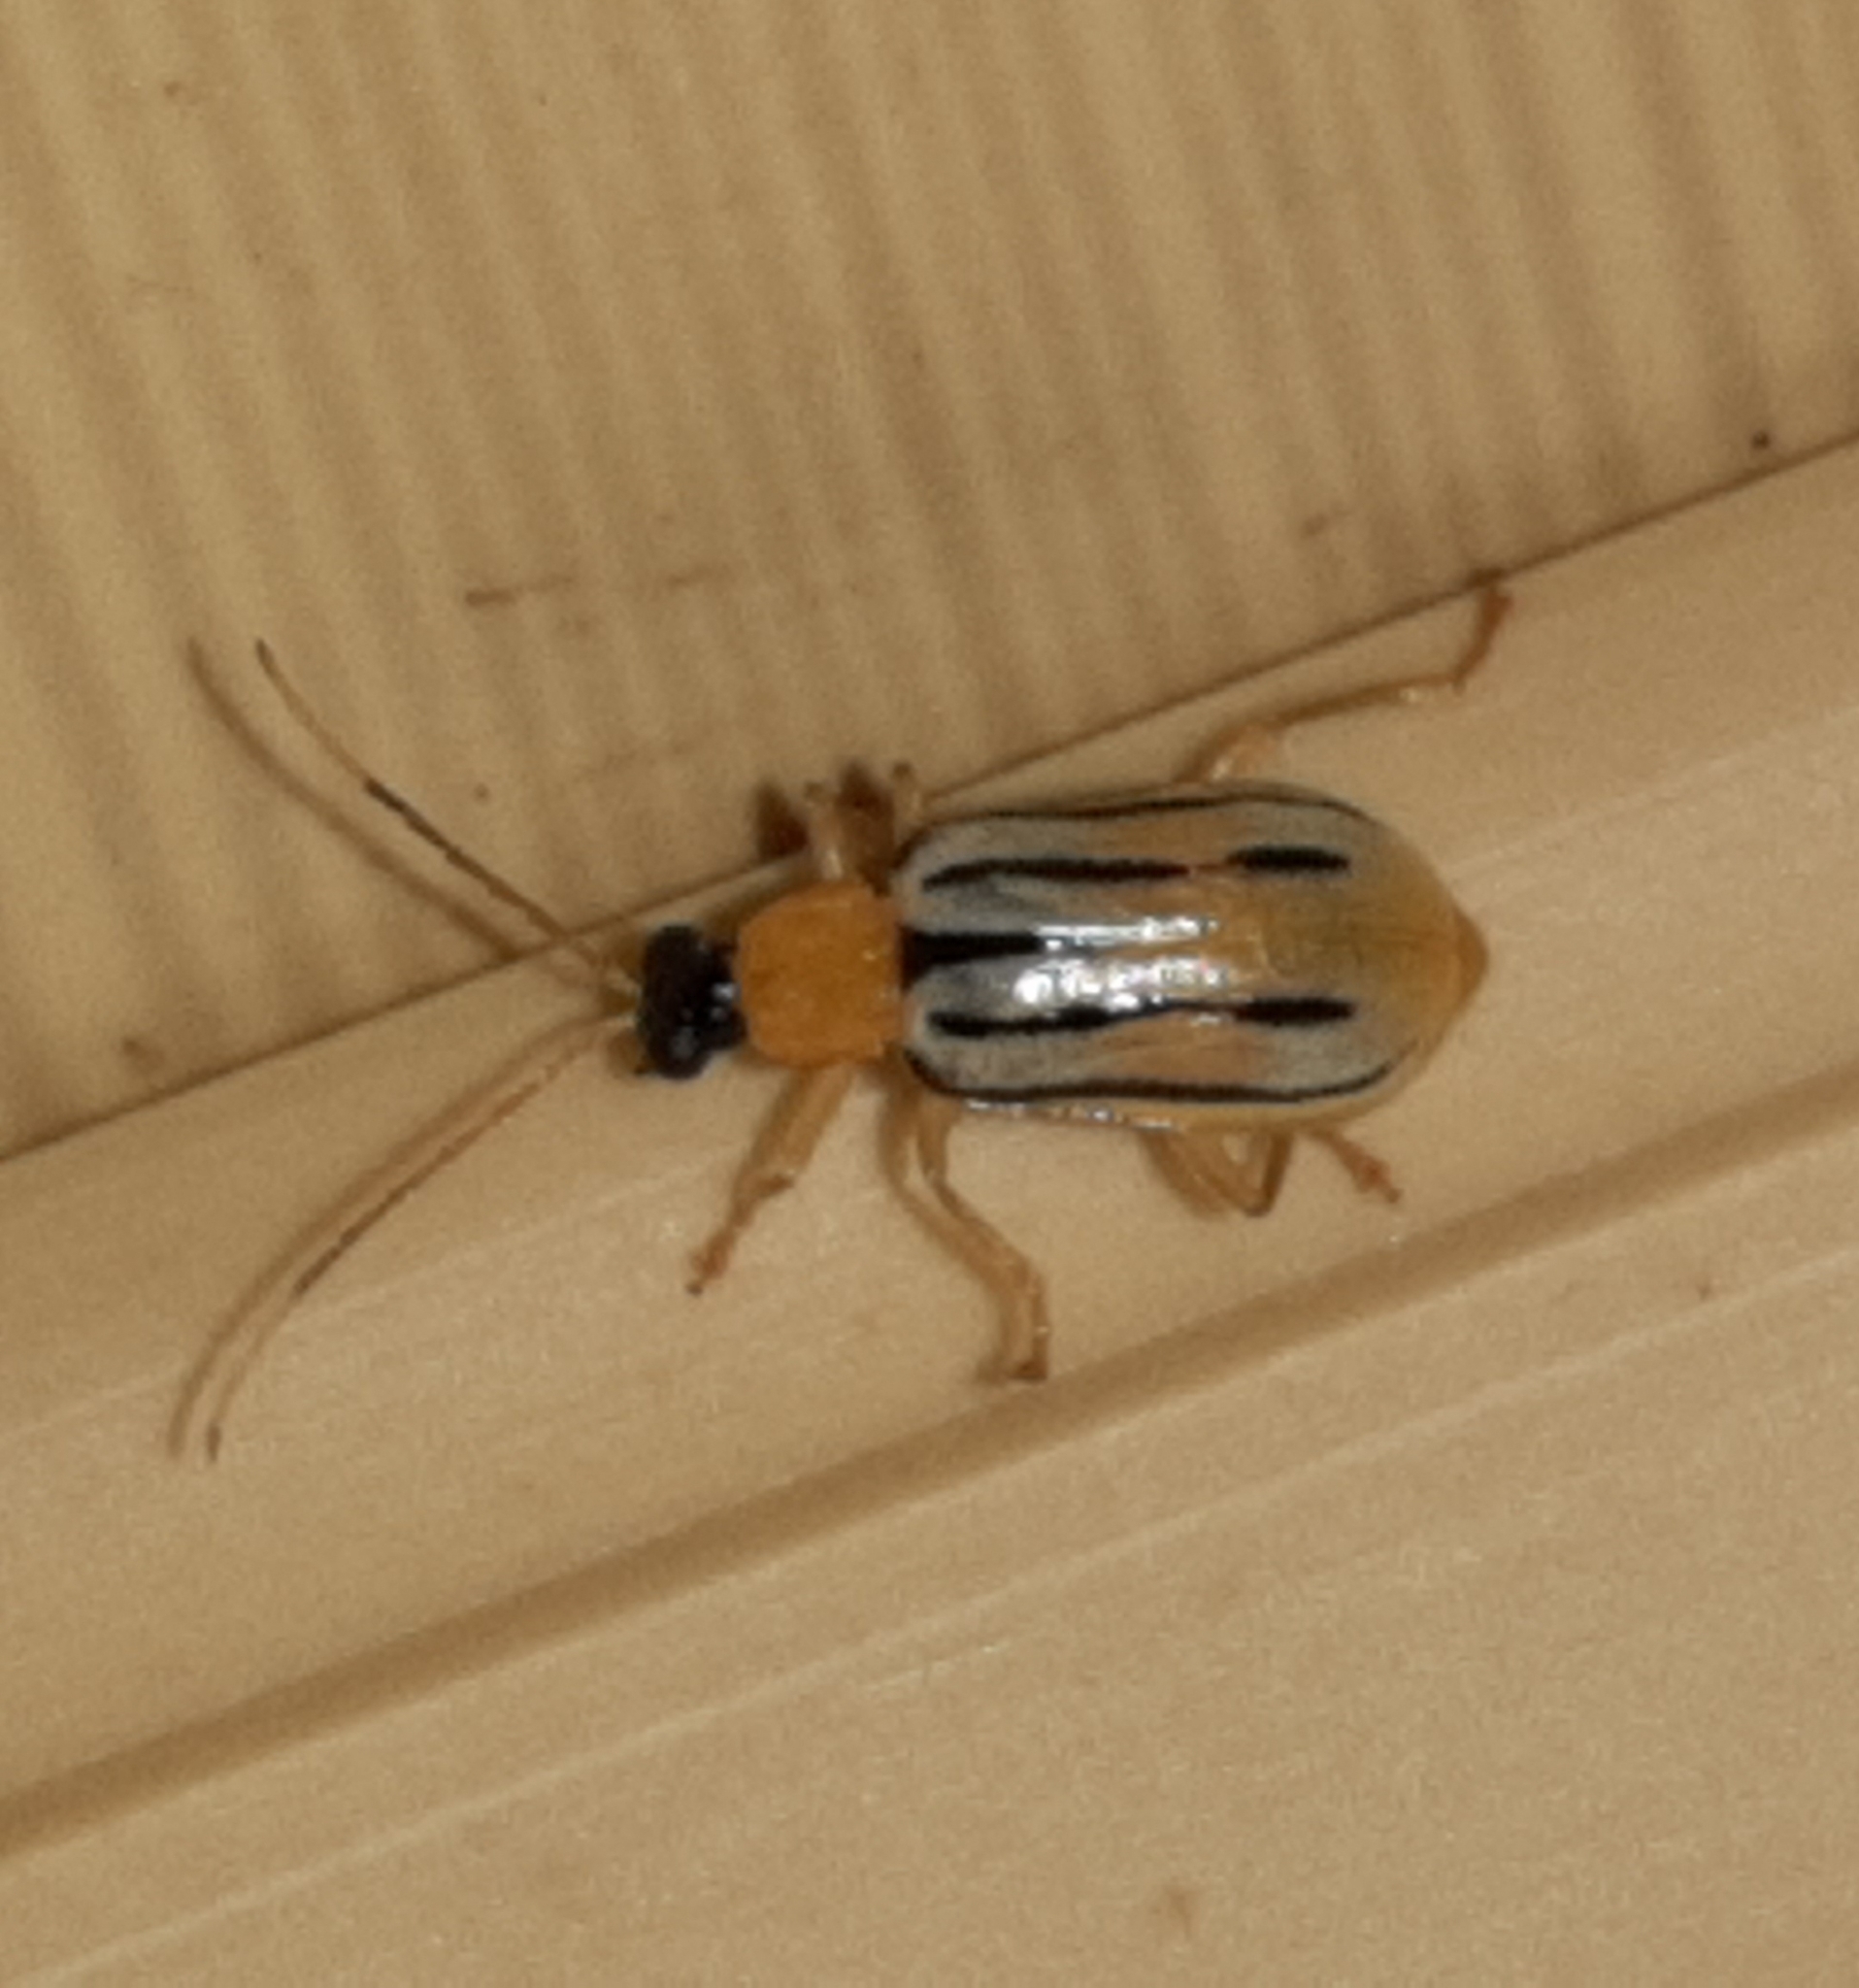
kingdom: Animalia
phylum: Arthropoda
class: Insecta
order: Coleoptera
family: Chrysomelidae
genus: Diabrotica
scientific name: Diabrotica
